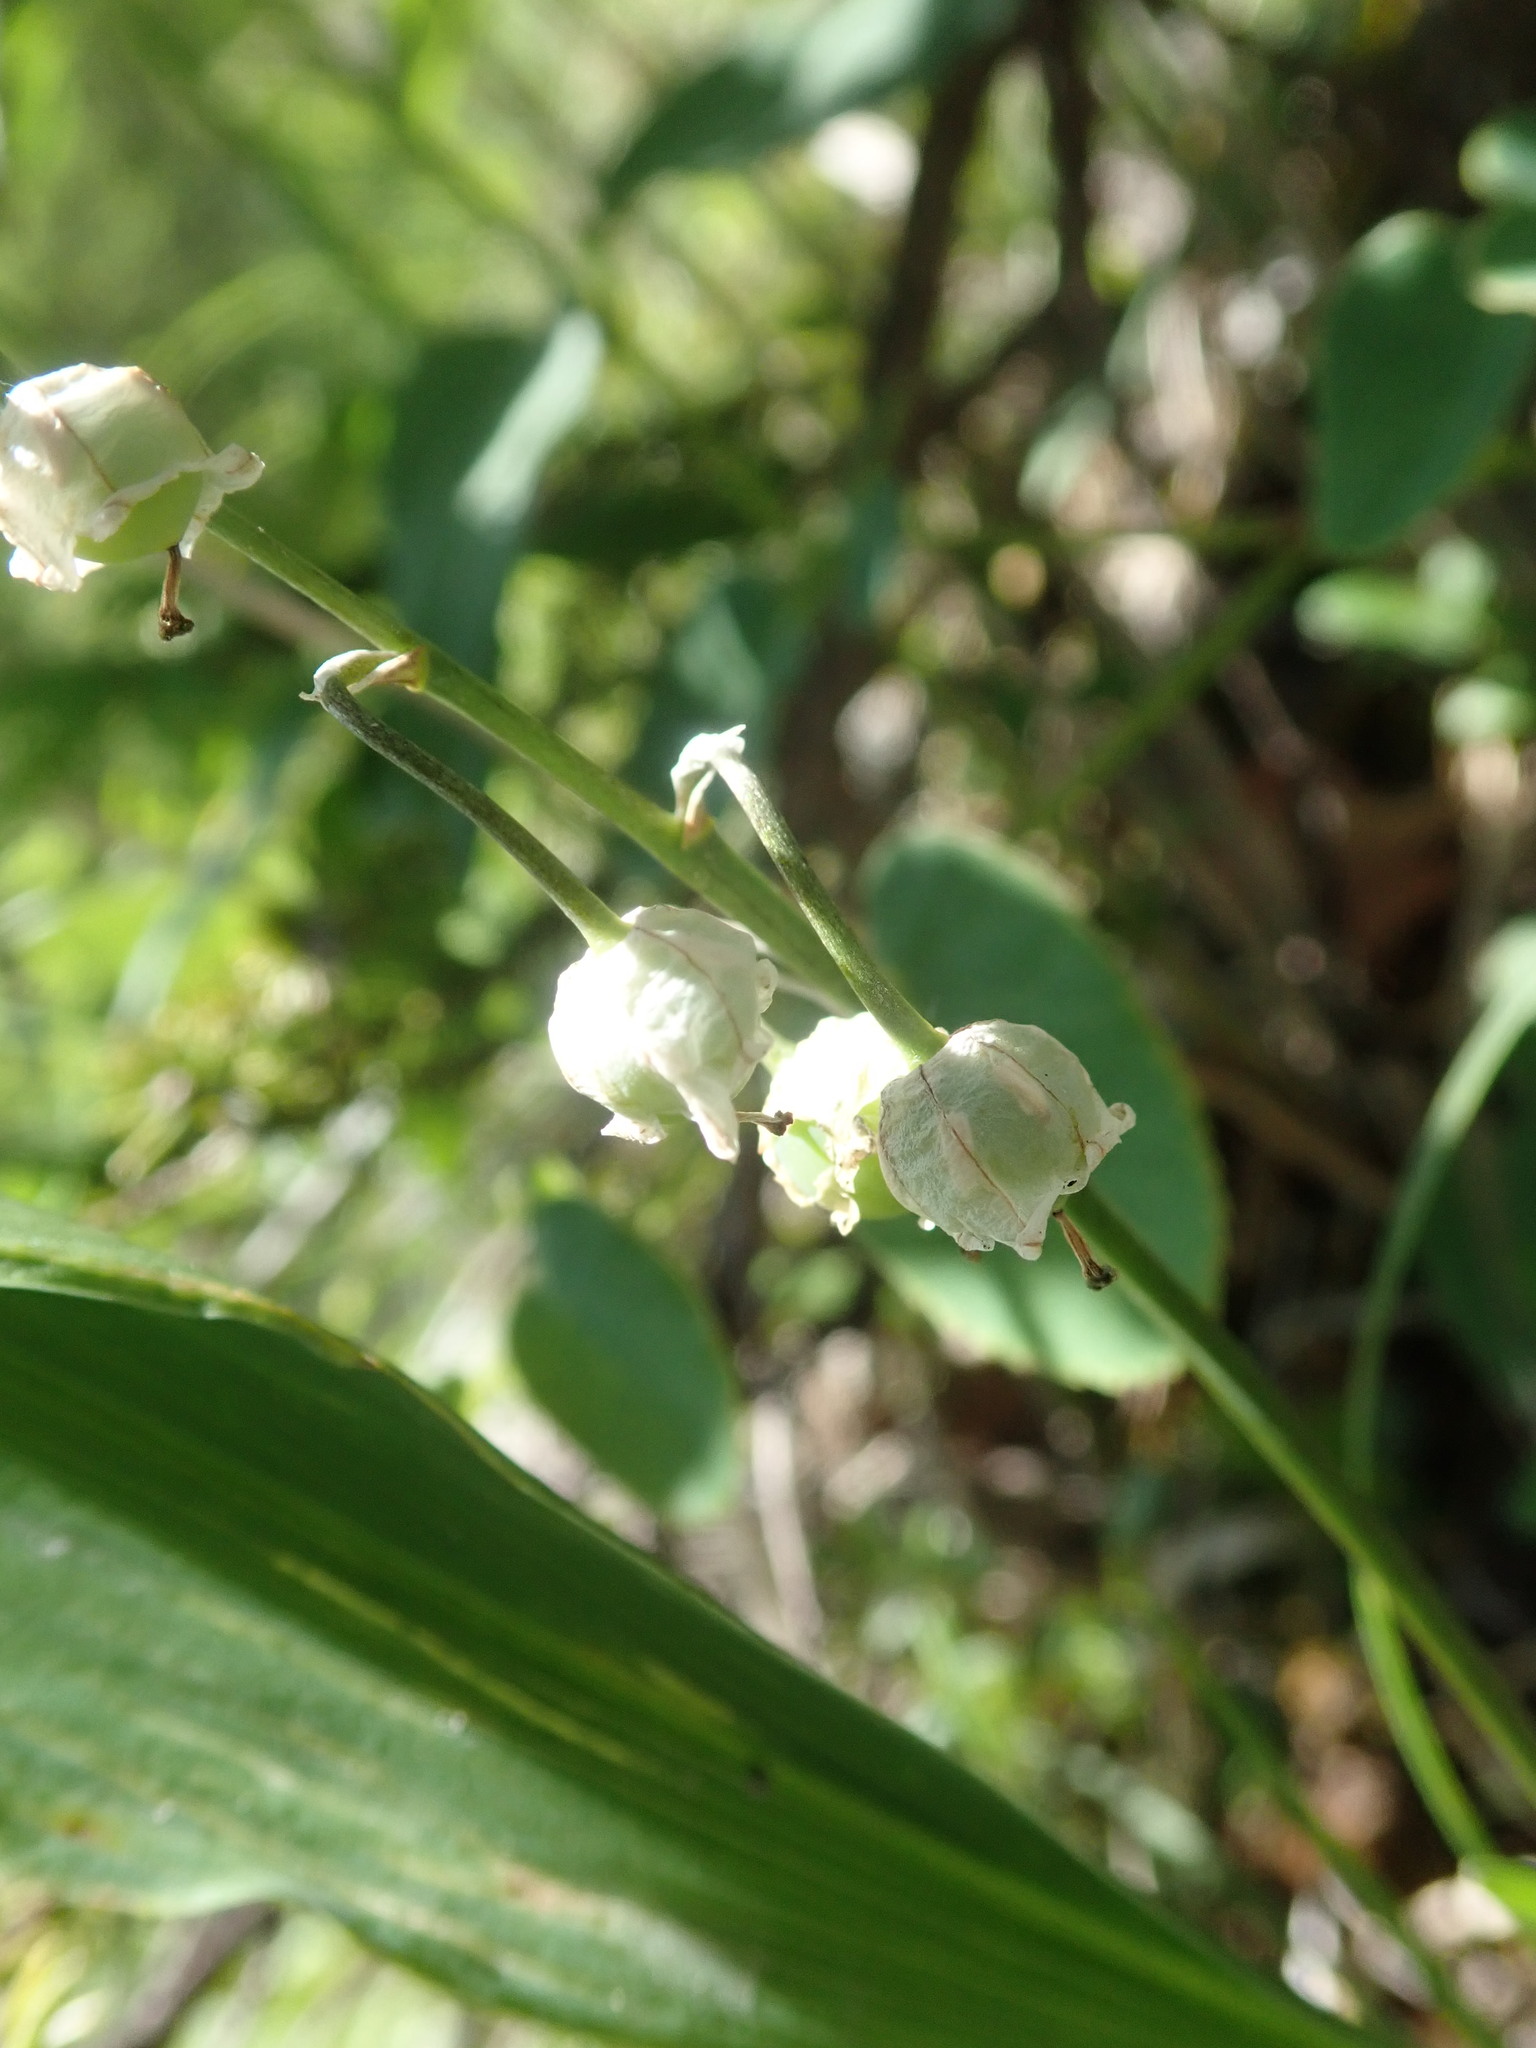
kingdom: Plantae
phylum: Tracheophyta
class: Liliopsida
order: Asparagales
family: Asparagaceae
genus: Convallaria
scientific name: Convallaria majalis
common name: Lily-of-the-valley
